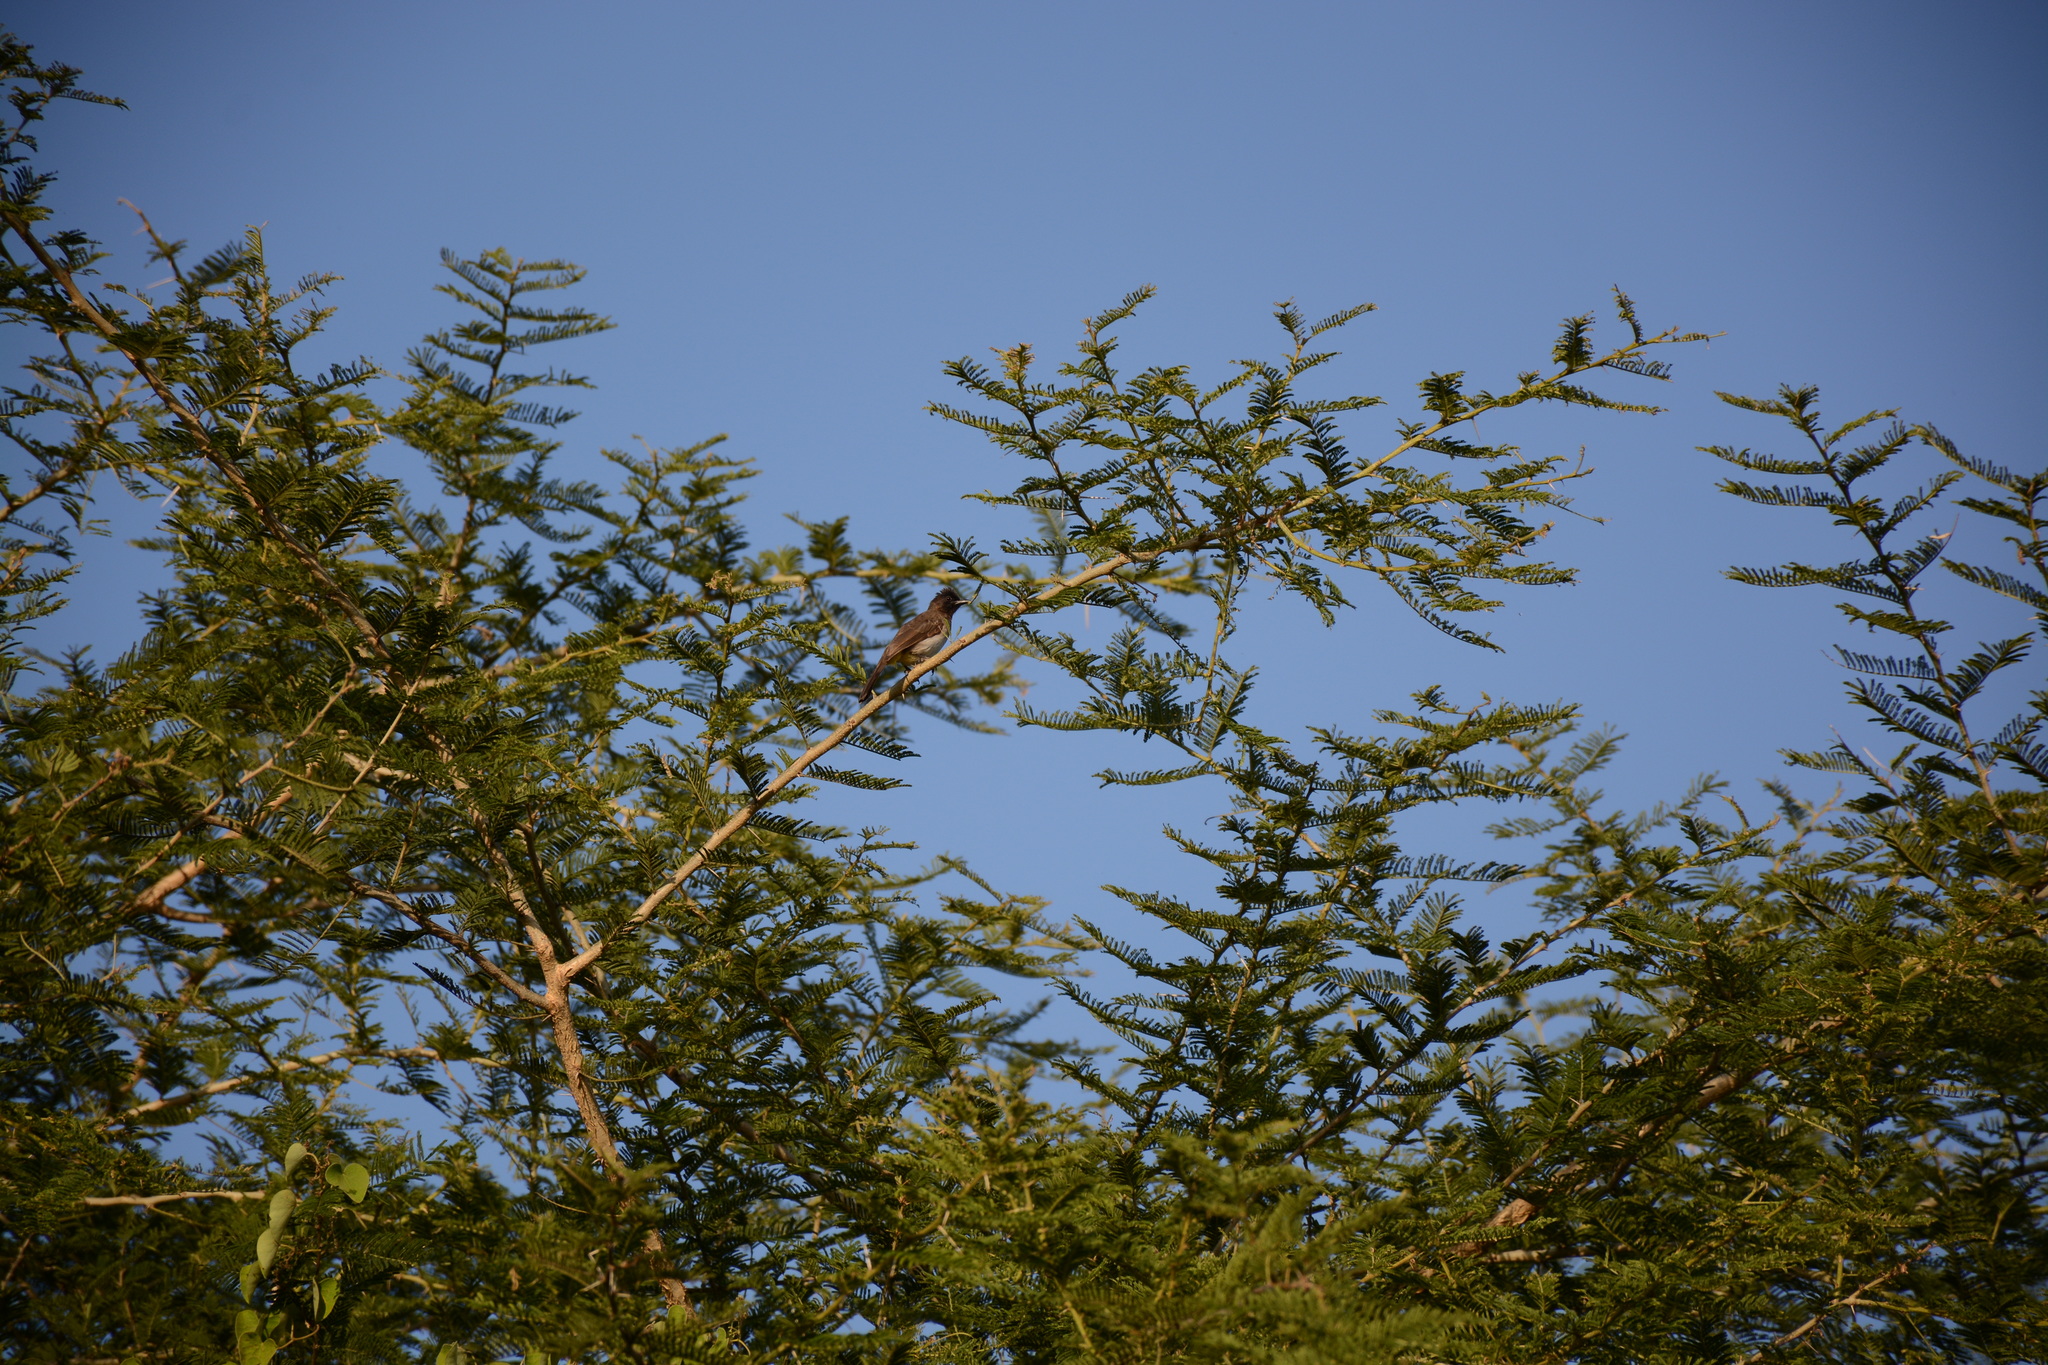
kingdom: Animalia
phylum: Chordata
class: Aves
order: Passeriformes
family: Pycnonotidae
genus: Pycnonotus
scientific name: Pycnonotus barbatus
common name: Common bulbul
